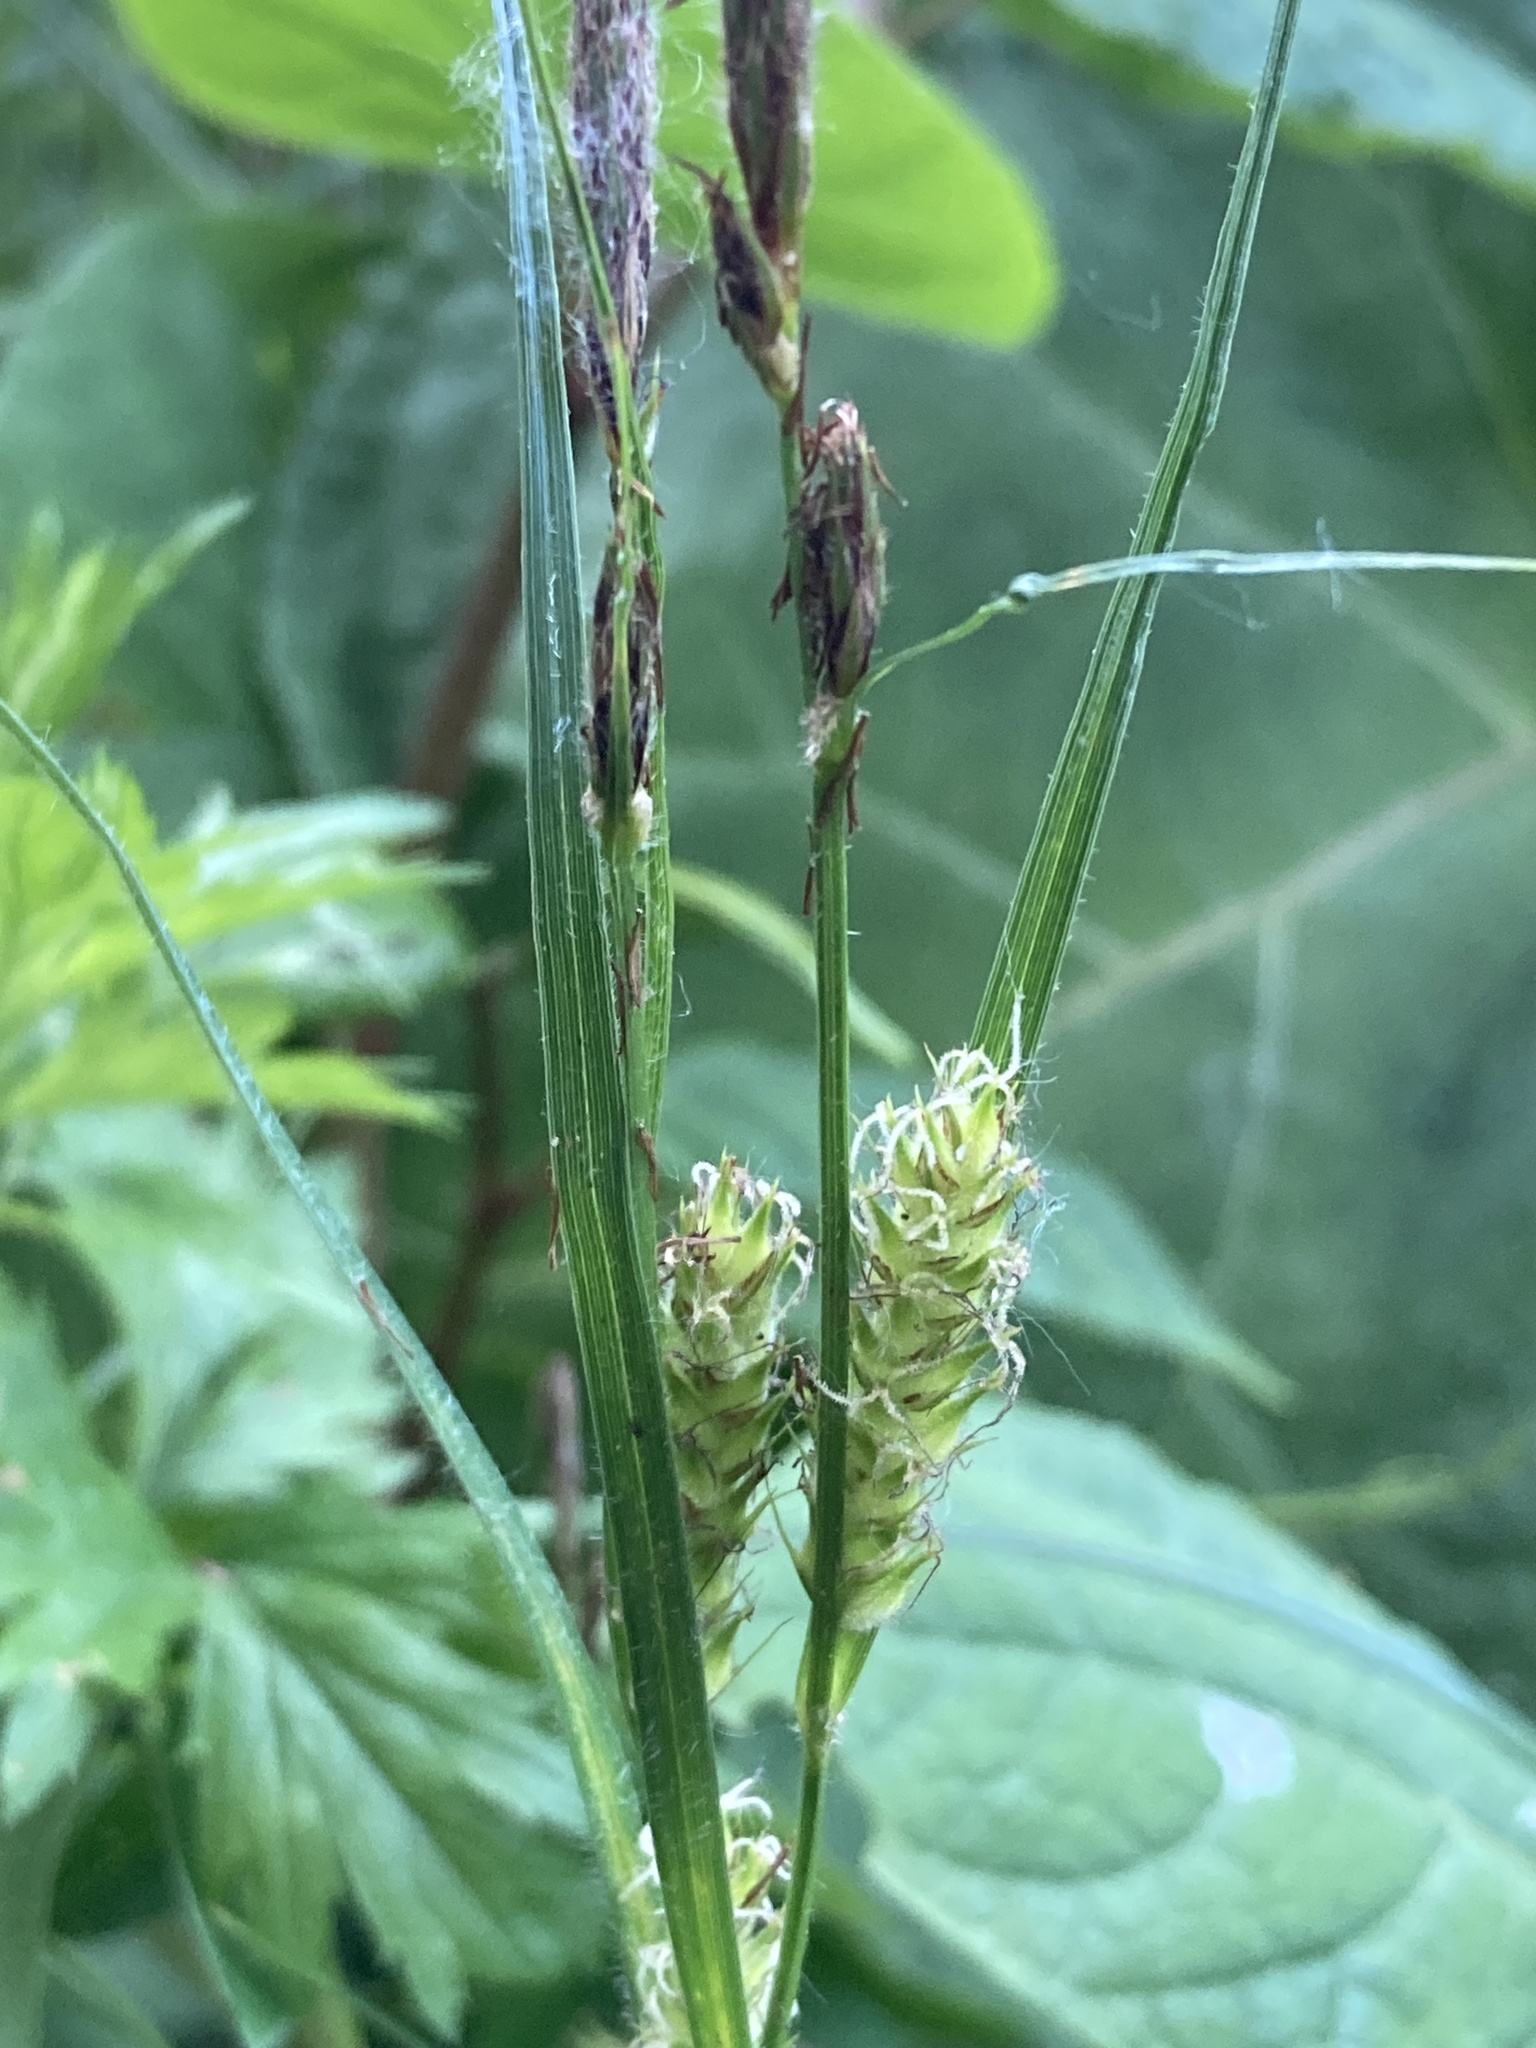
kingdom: Plantae
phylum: Tracheophyta
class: Liliopsida
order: Poales
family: Cyperaceae
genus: Carex
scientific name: Carex hirta
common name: Hairy sedge
